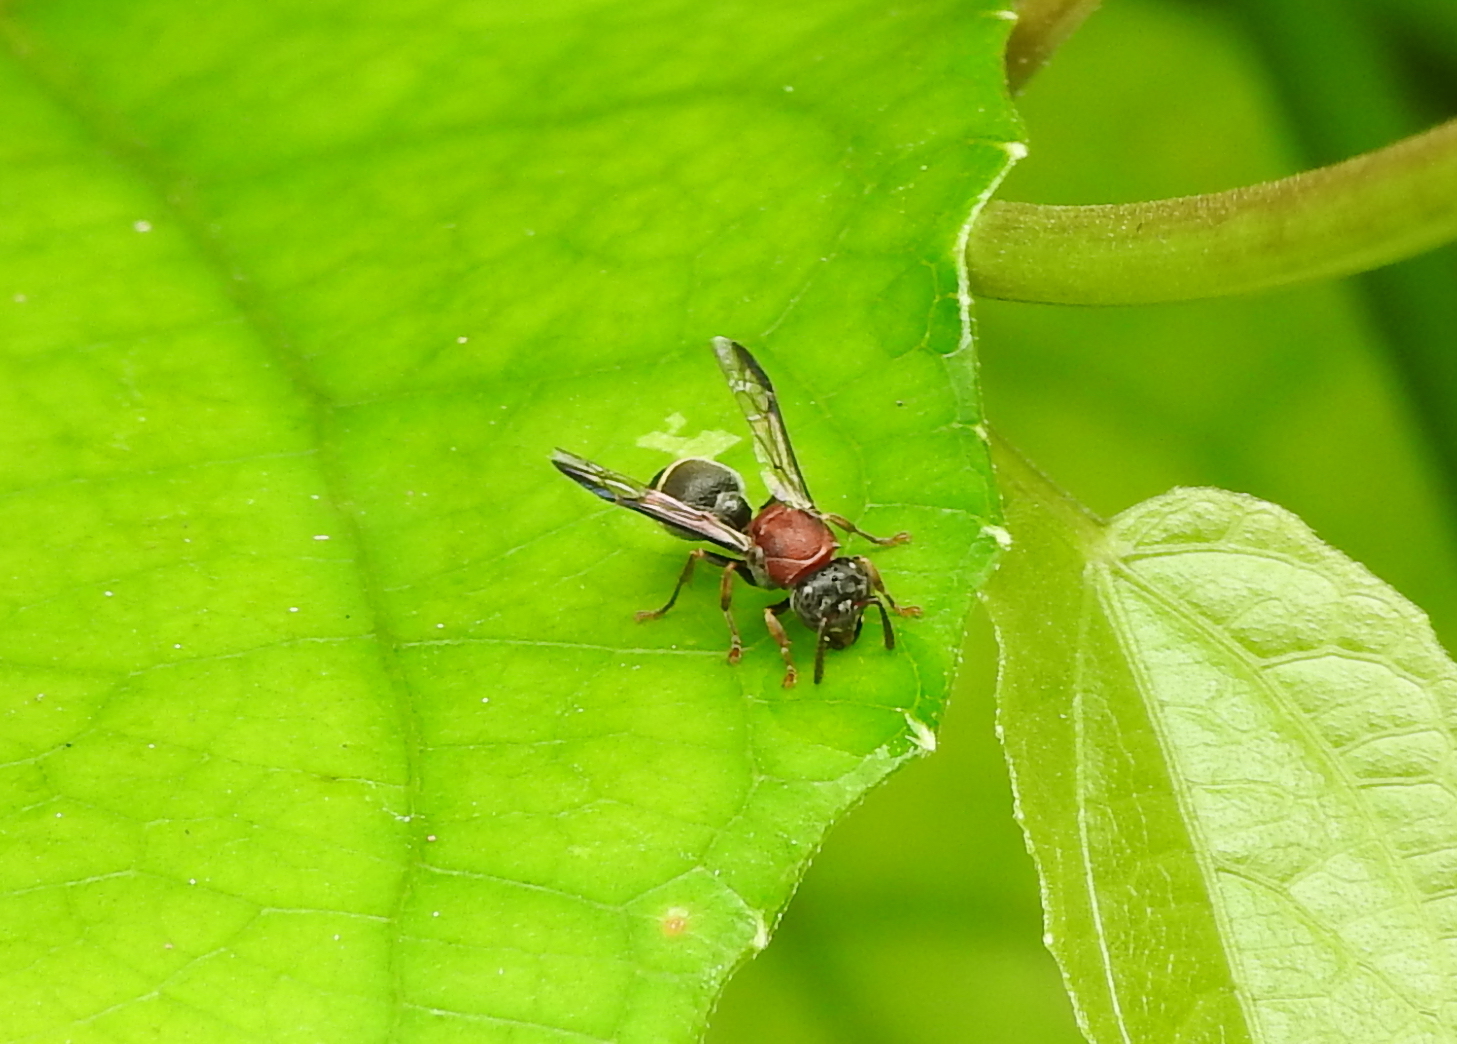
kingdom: Animalia
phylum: Arthropoda
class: Insecta
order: Hymenoptera
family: Vespidae
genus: Ropalidia
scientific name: Ropalidia erythrospila
